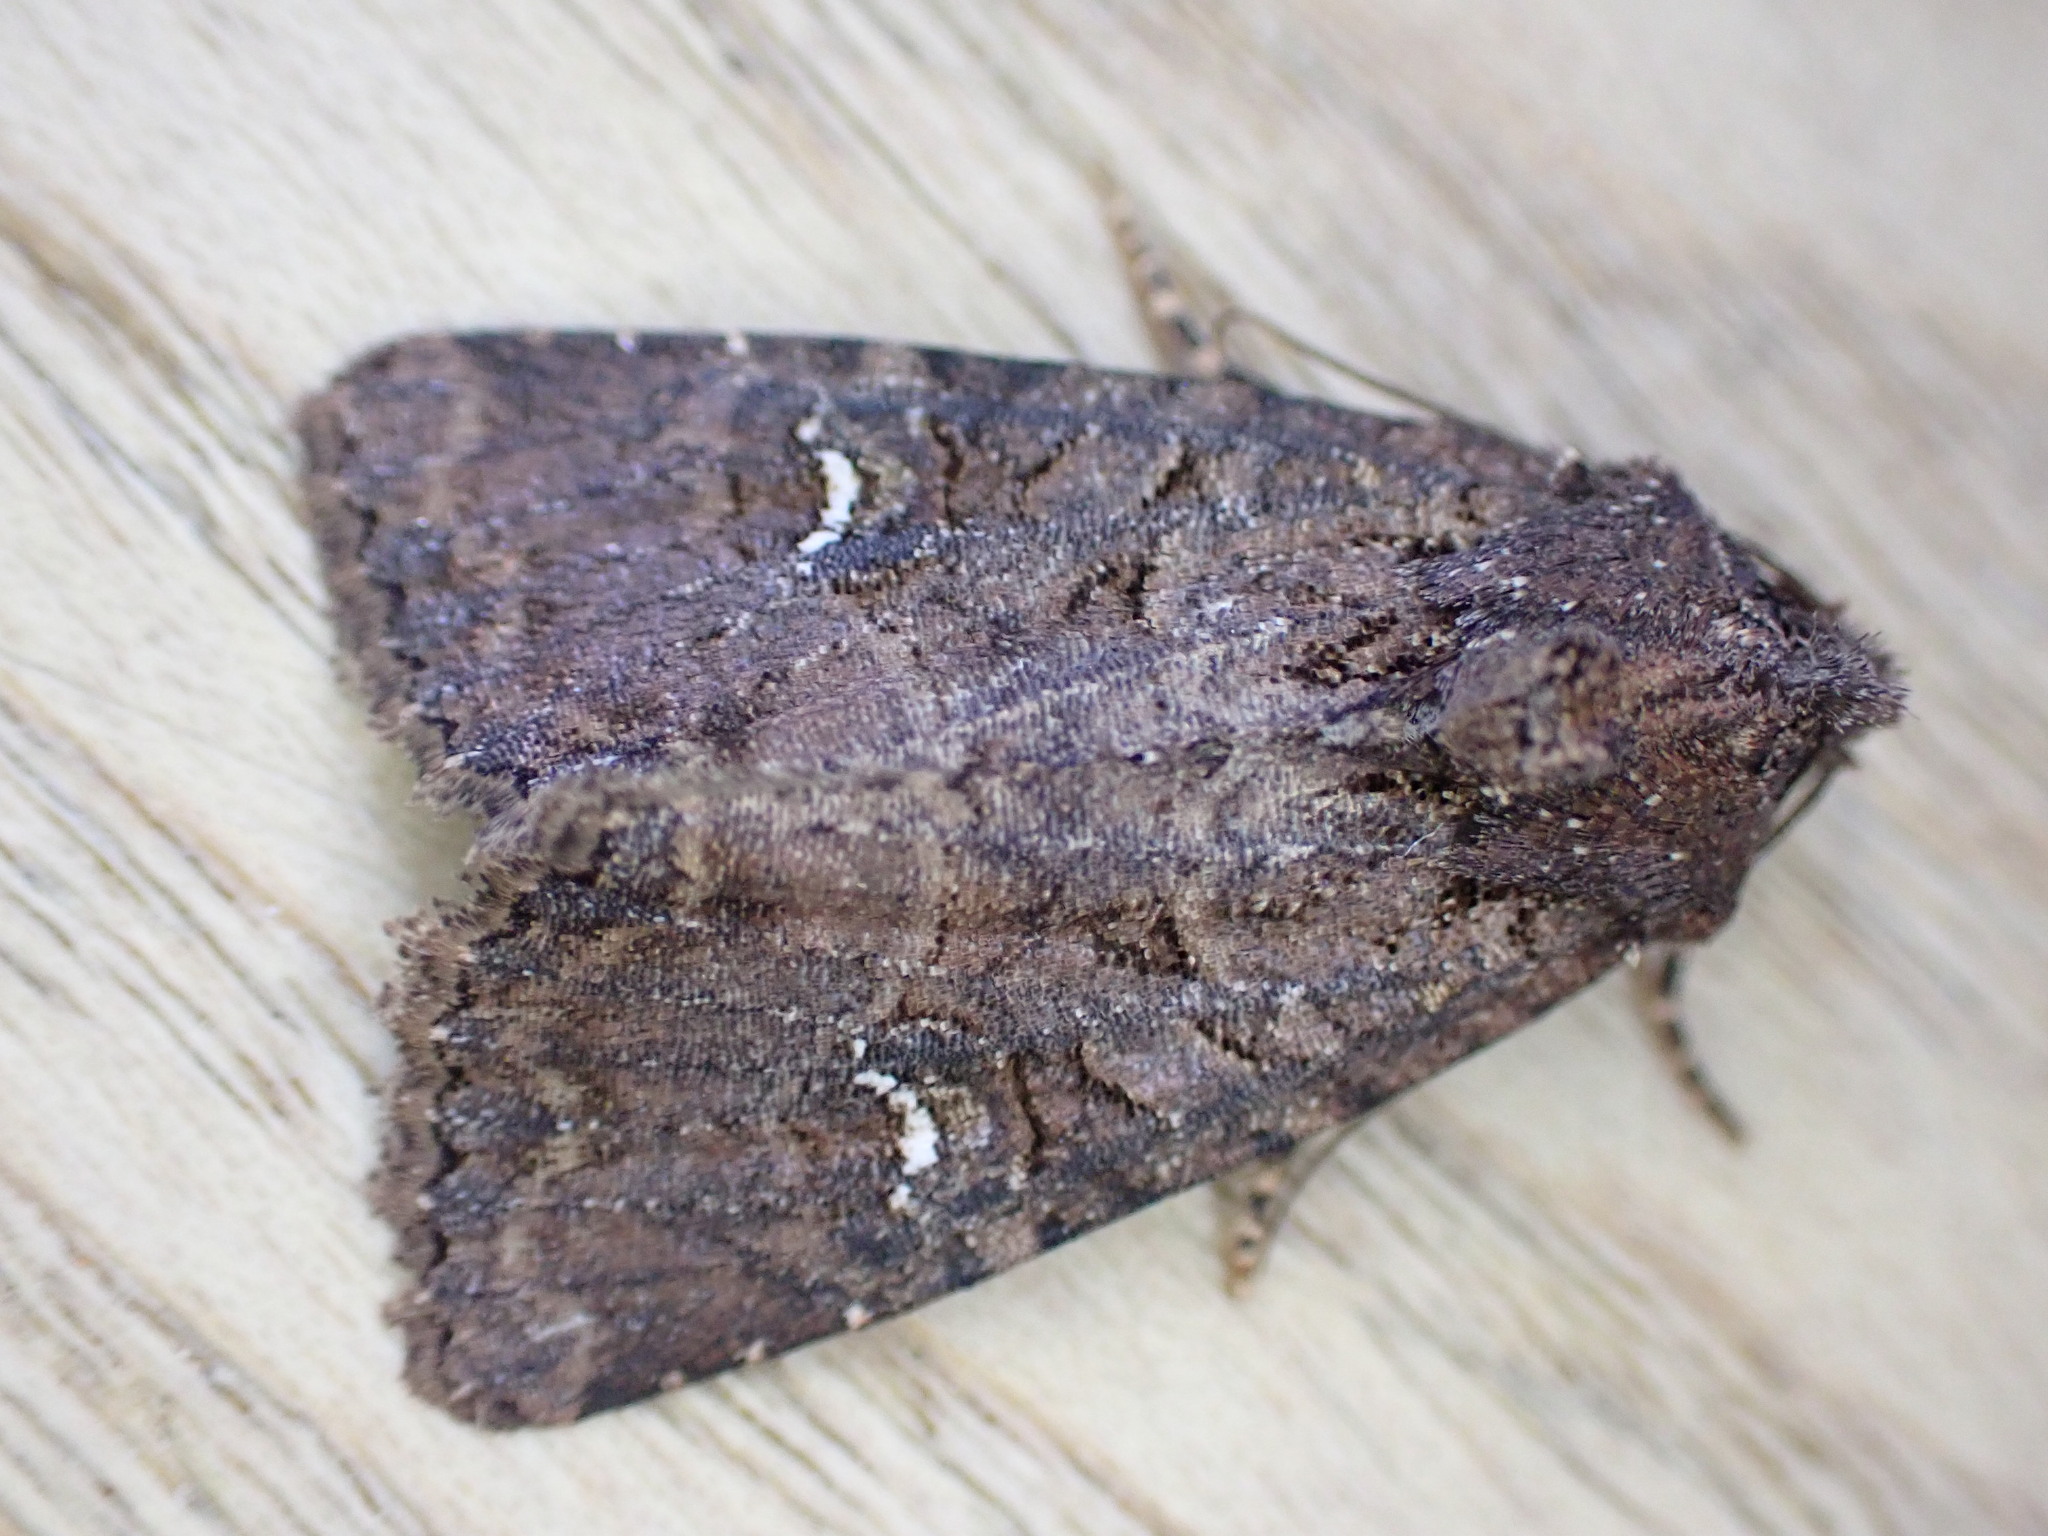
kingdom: Animalia
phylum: Arthropoda
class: Insecta
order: Lepidoptera
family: Noctuidae
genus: Mesapamea
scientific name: Mesapamea
